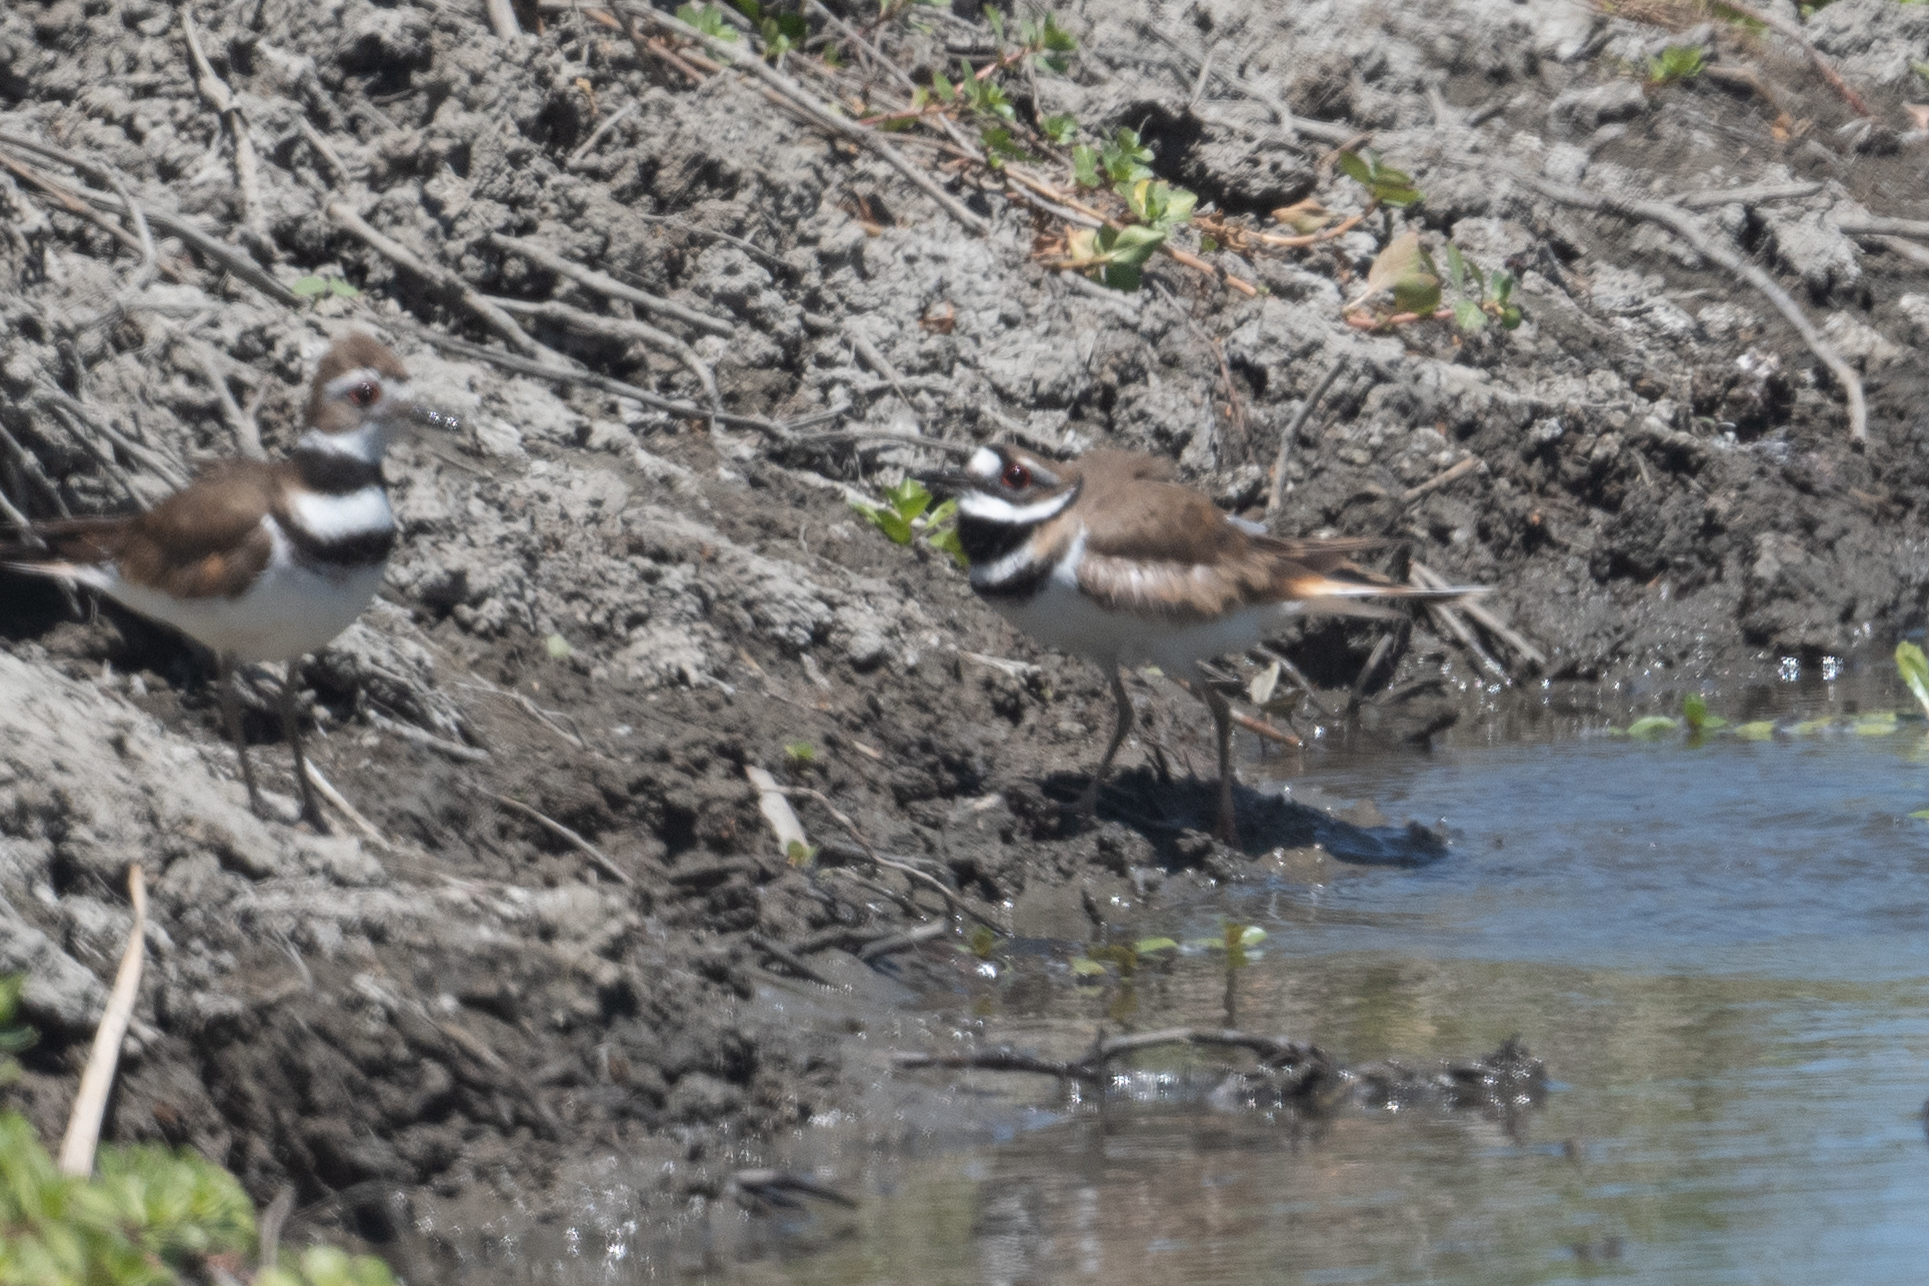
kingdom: Animalia
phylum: Chordata
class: Aves
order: Charadriiformes
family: Charadriidae
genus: Charadrius
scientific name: Charadrius vociferus
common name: Killdeer
